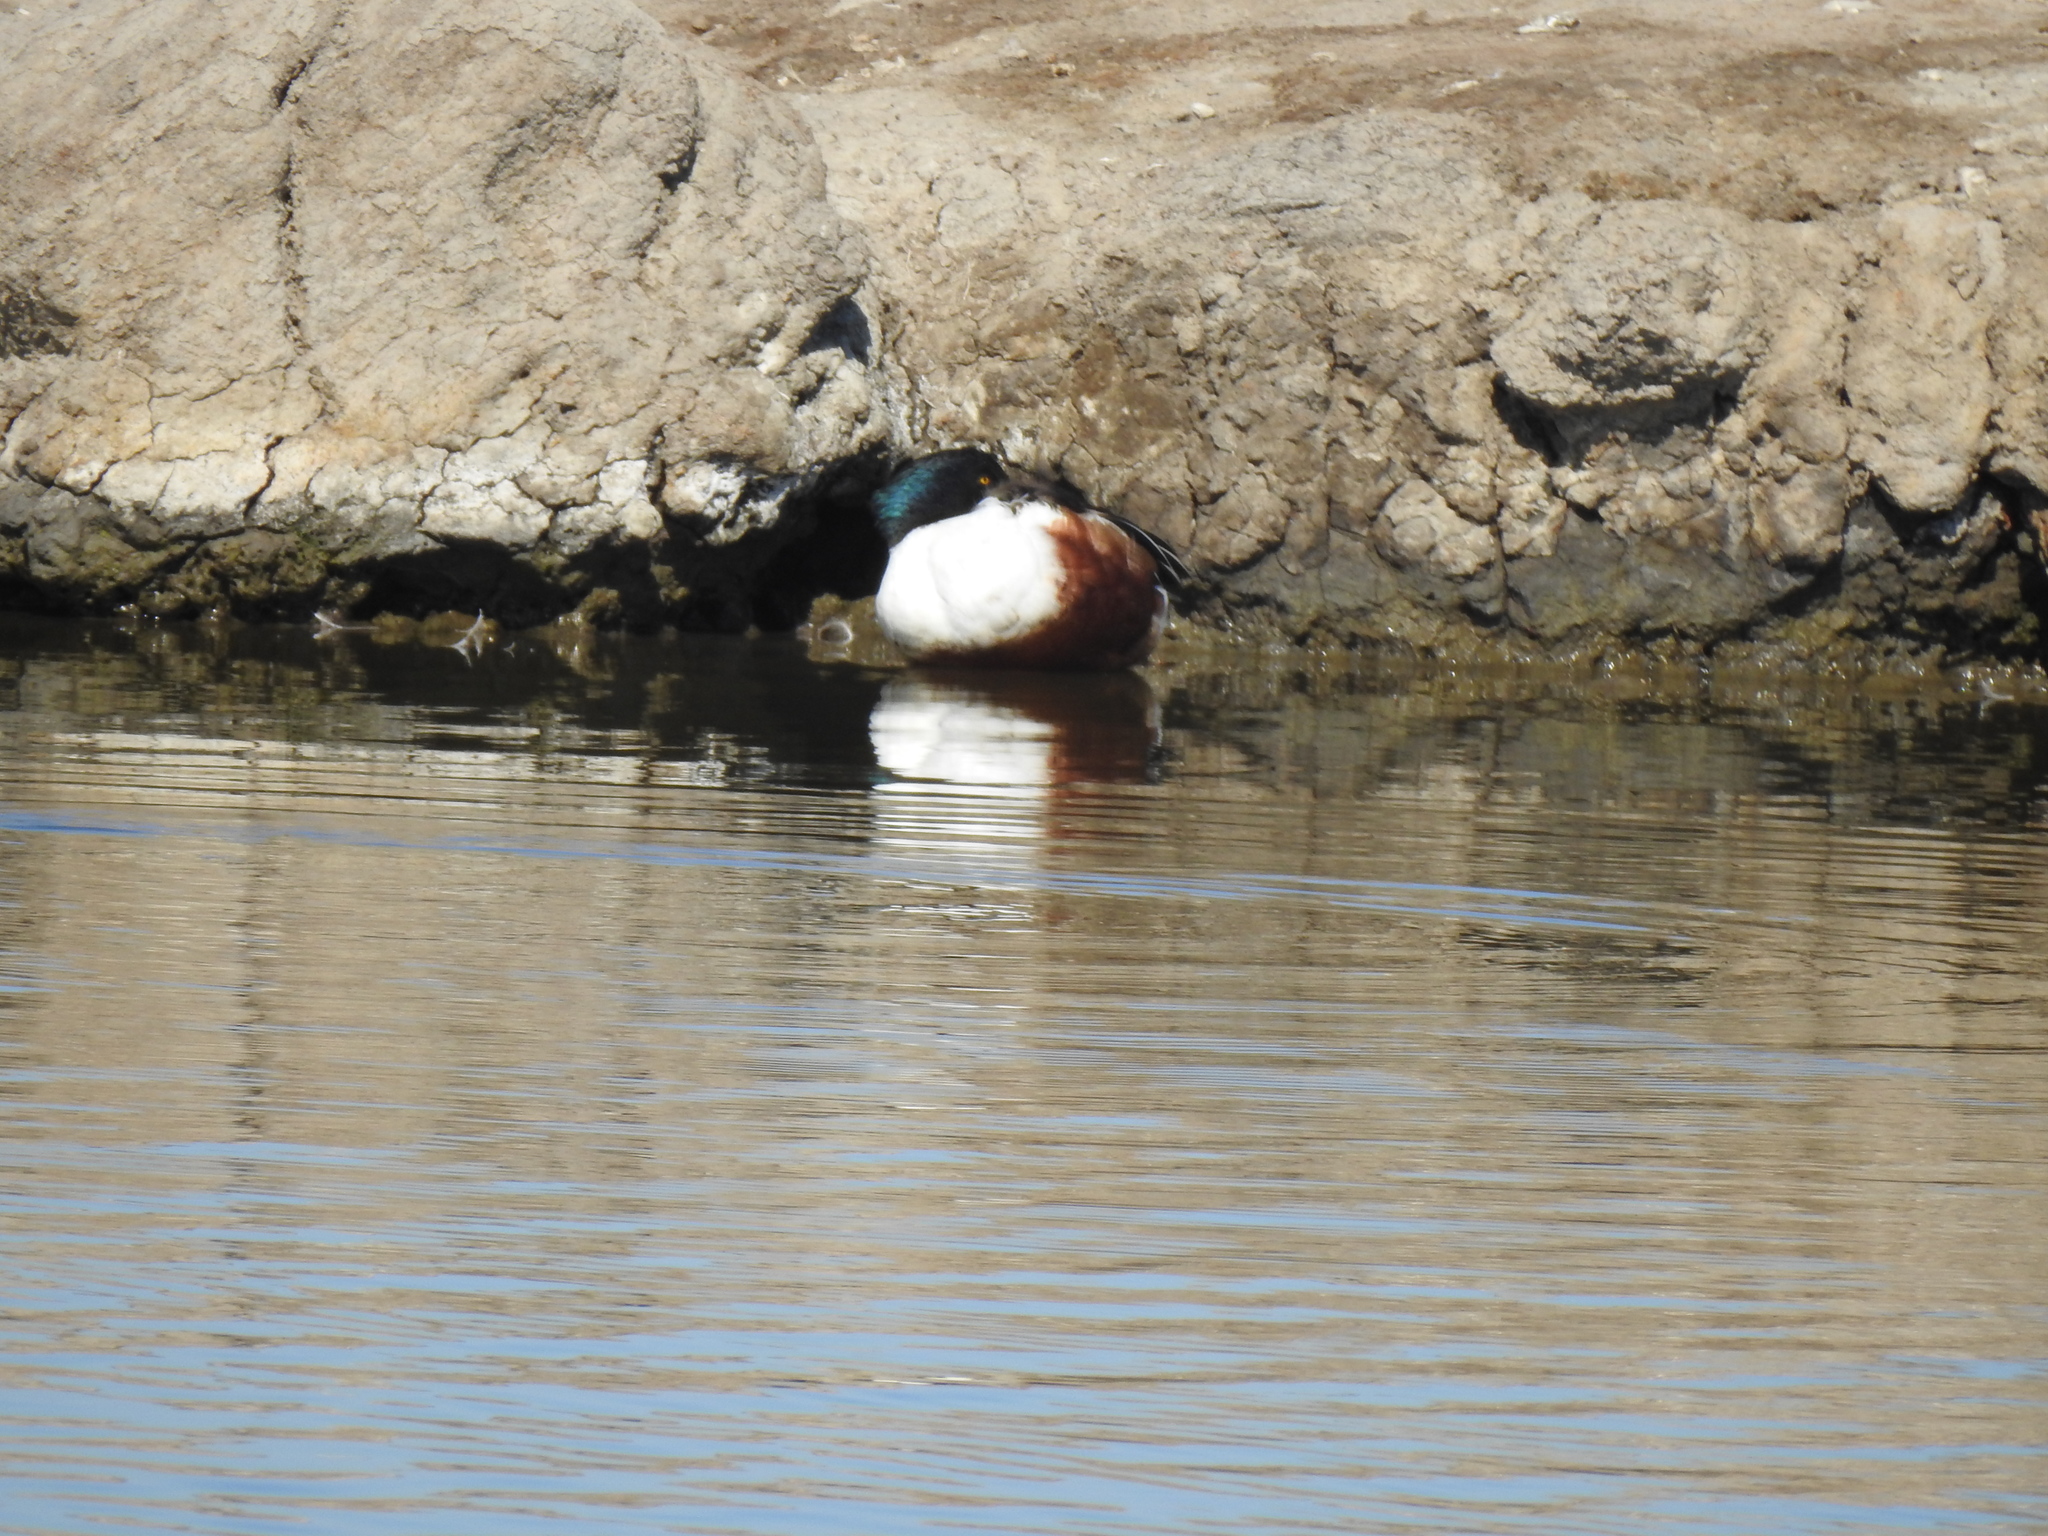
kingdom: Animalia
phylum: Chordata
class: Aves
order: Anseriformes
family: Anatidae
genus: Spatula
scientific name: Spatula clypeata
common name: Northern shoveler
